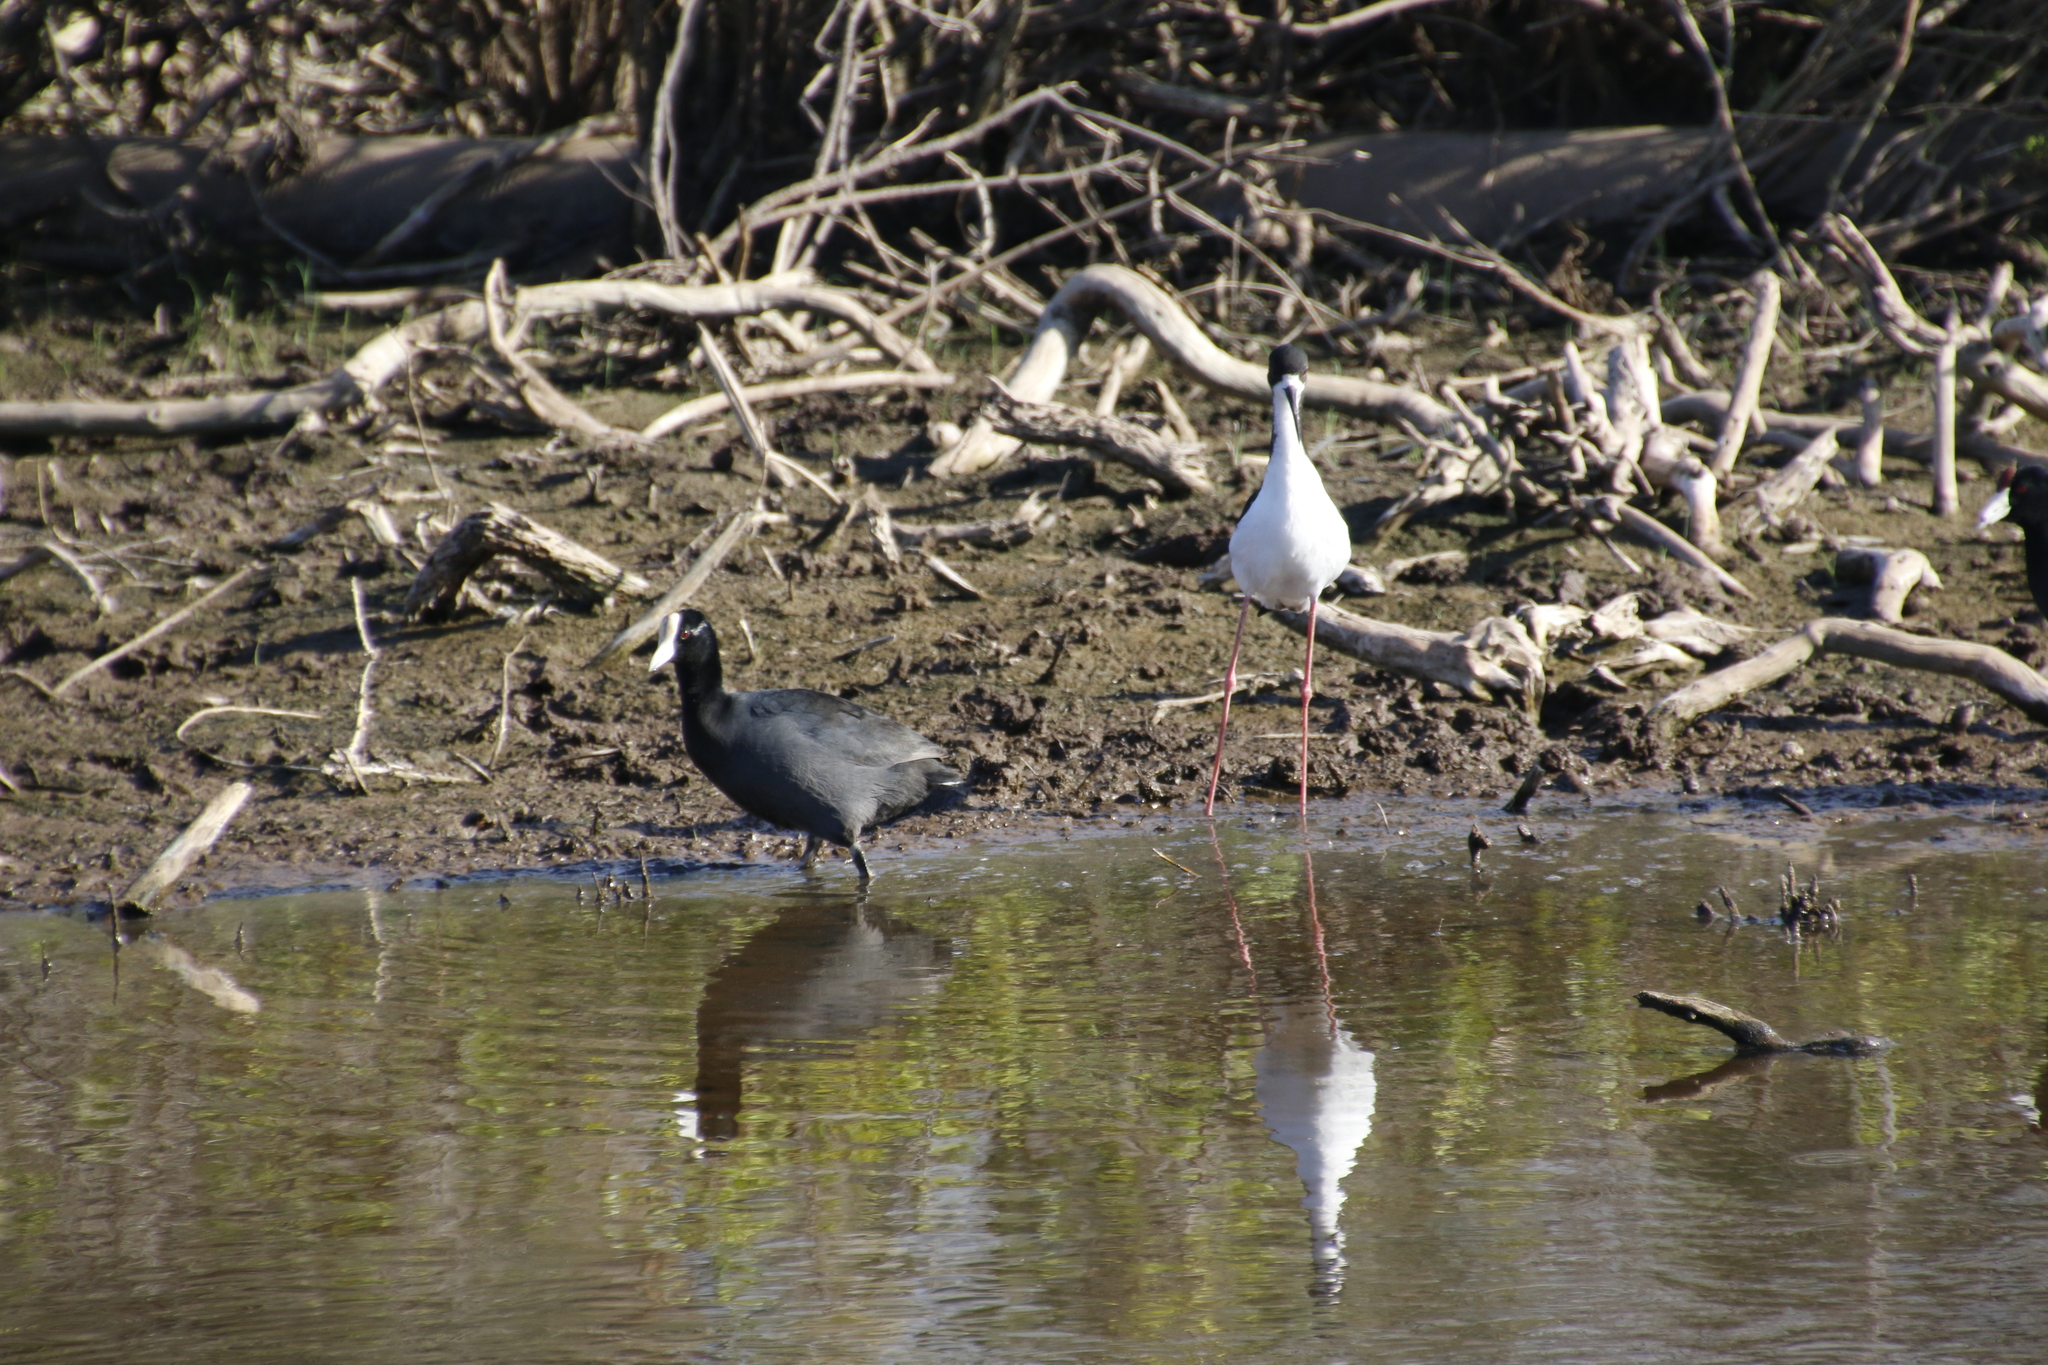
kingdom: Animalia
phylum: Chordata
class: Aves
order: Gruiformes
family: Rallidae
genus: Fulica
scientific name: Fulica alai
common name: Hawaiian coot
